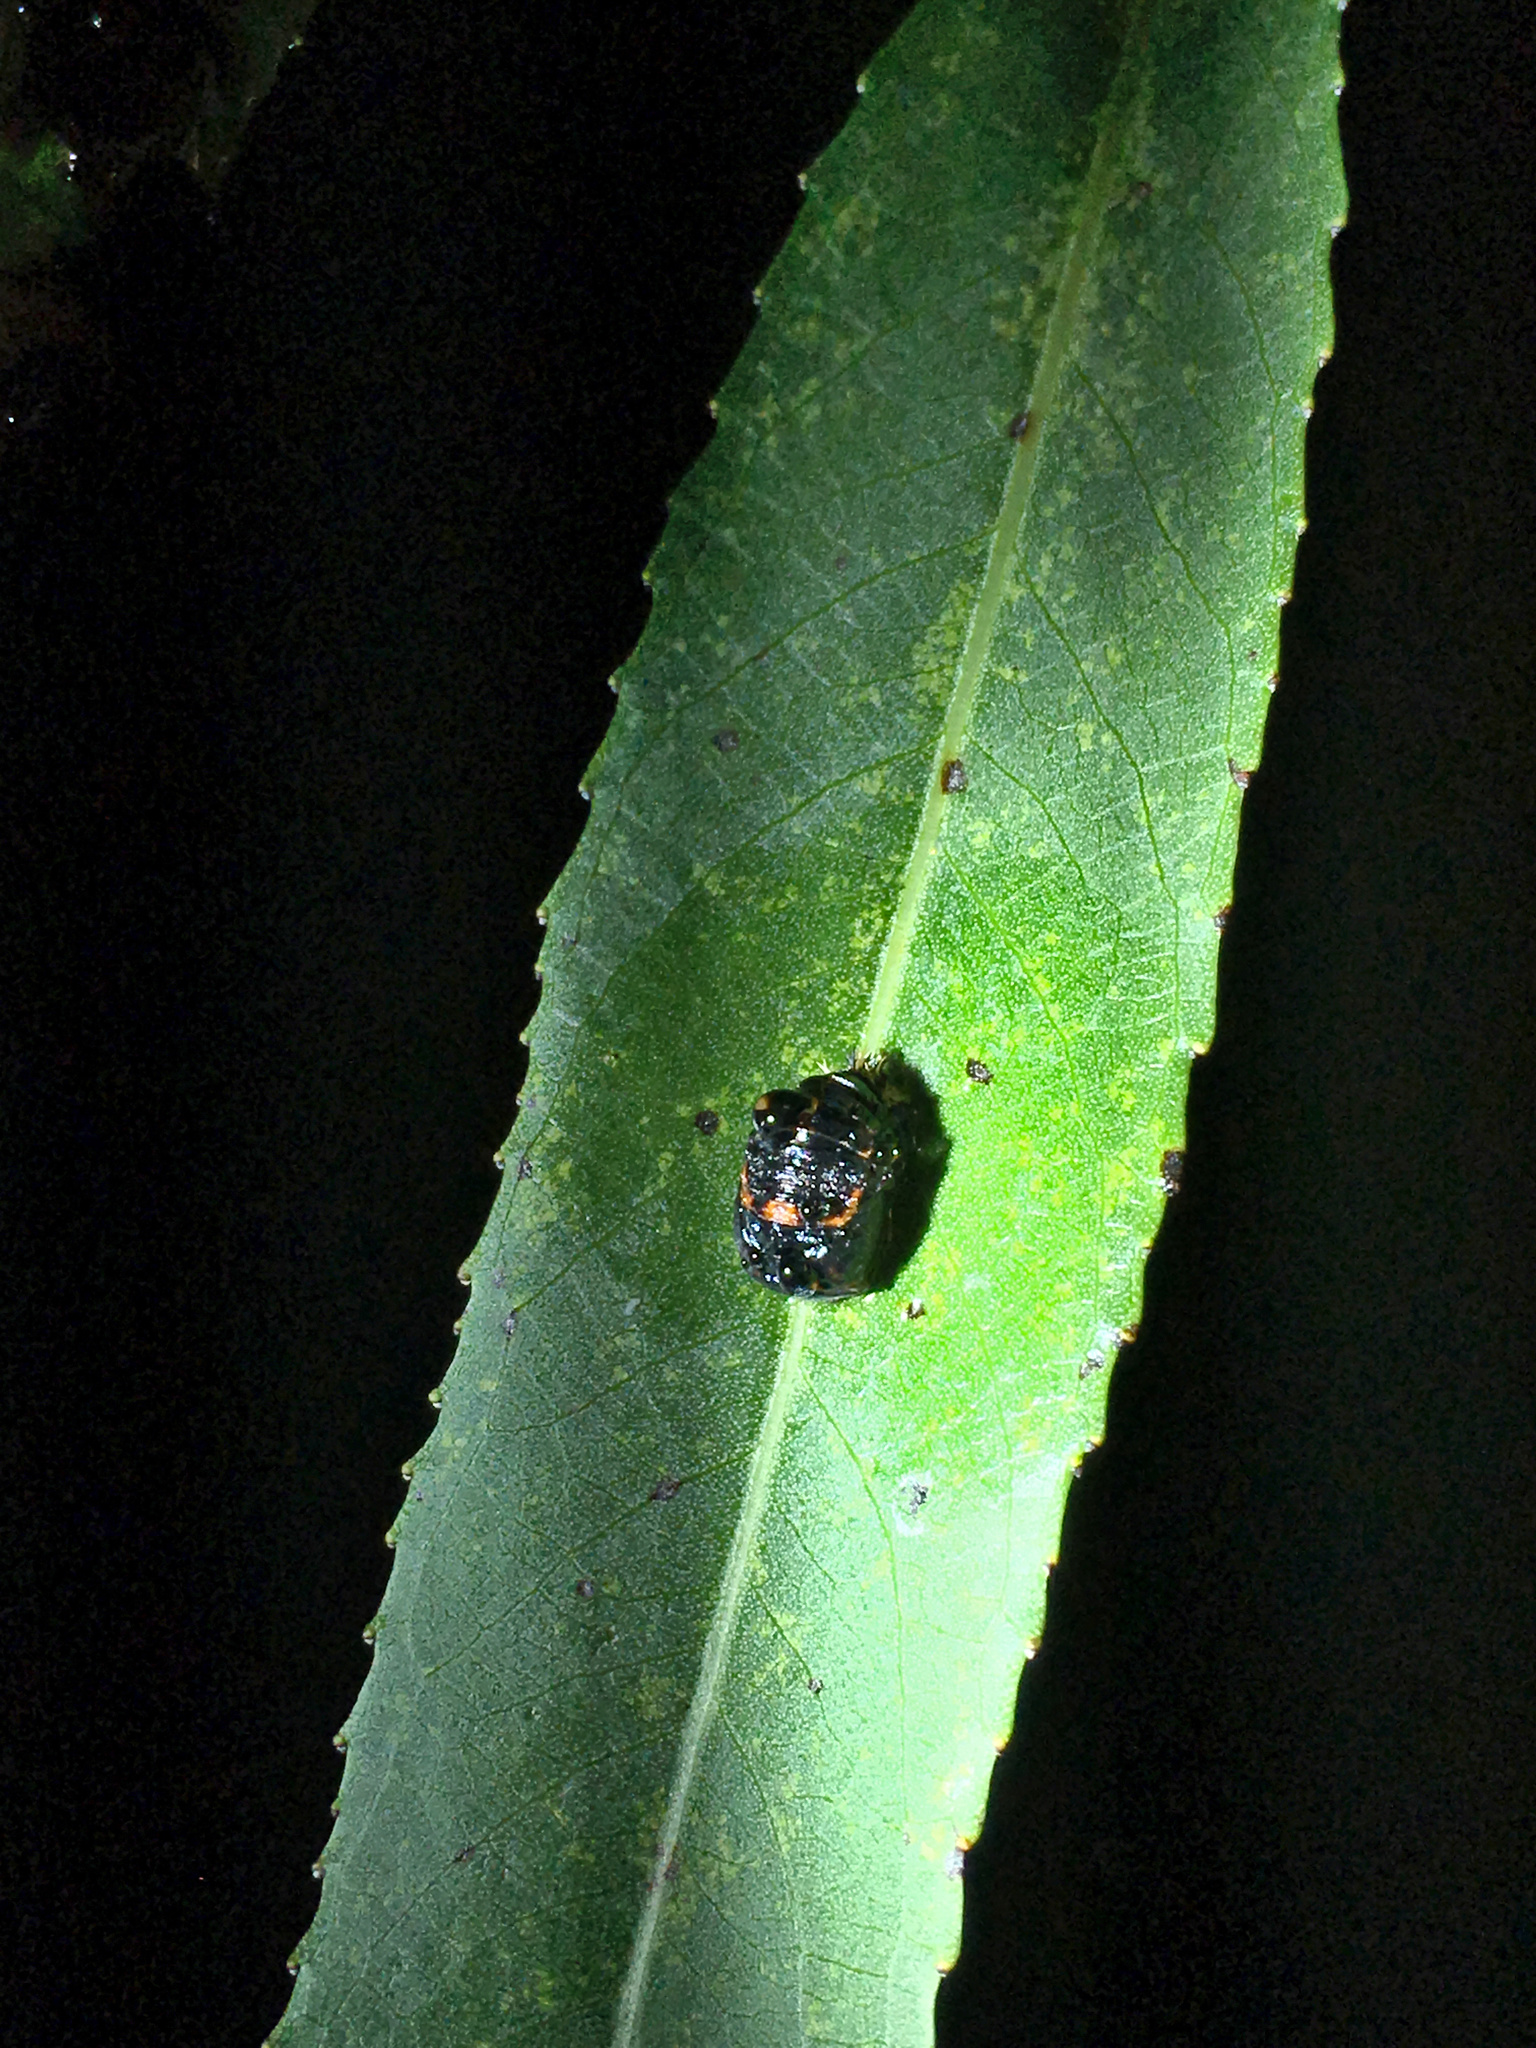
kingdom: Animalia
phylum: Arthropoda
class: Insecta
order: Coleoptera
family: Coccinellidae
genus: Harmonia
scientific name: Harmonia axyridis
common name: Harlequin ladybird
